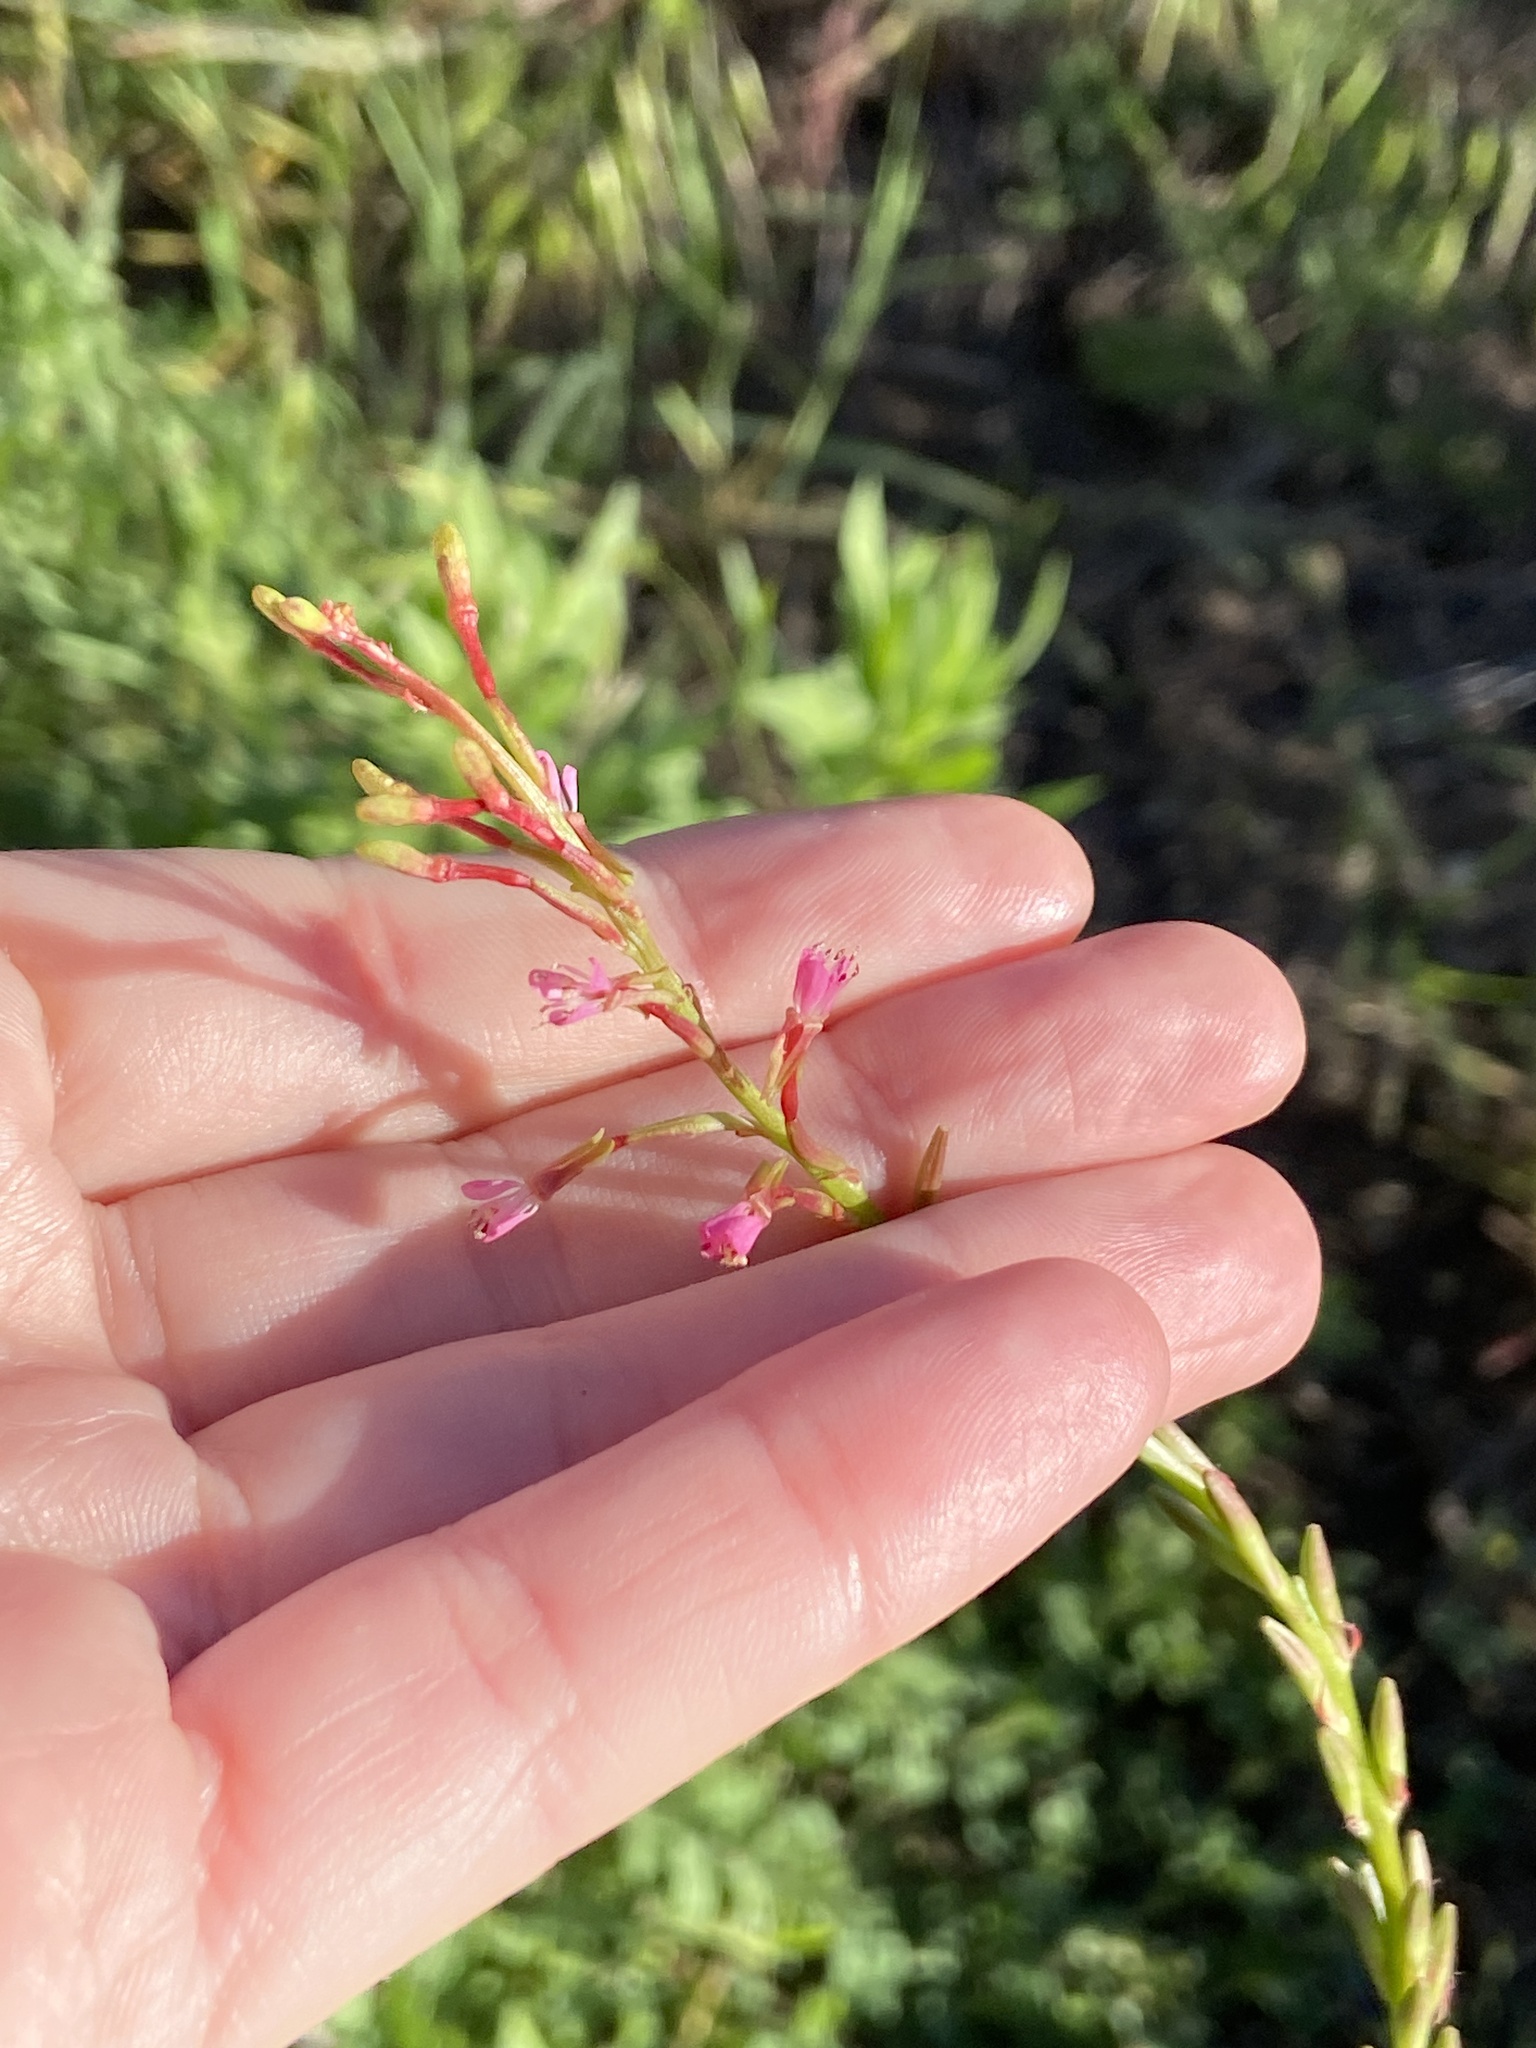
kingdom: Plantae
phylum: Tracheophyta
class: Magnoliopsida
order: Myrtales
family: Onagraceae
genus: Oenothera
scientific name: Oenothera curtiflora
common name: Velvetweed
